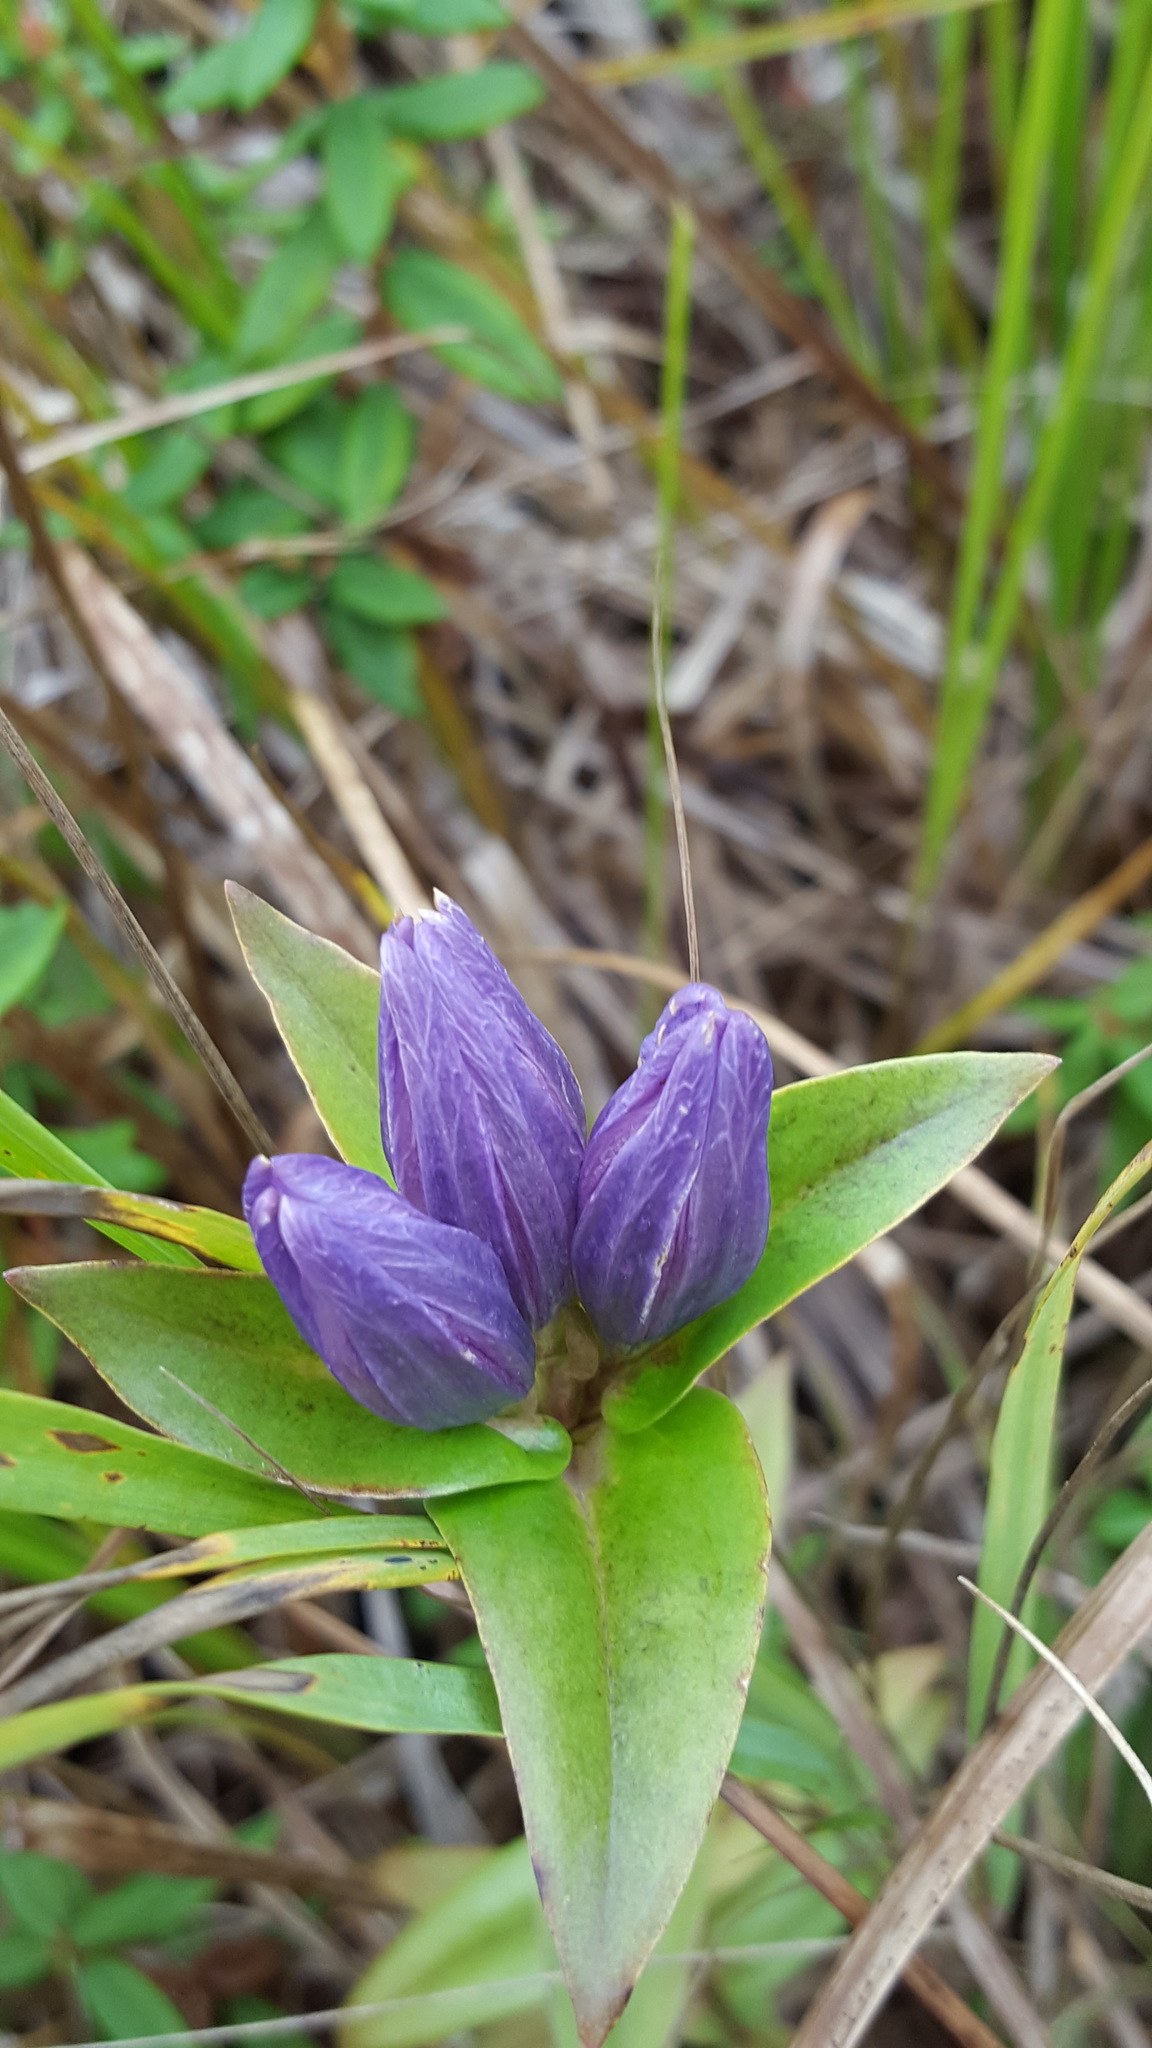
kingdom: Plantae
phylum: Tracheophyta
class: Magnoliopsida
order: Gentianales
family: Gentianaceae
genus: Gentiana
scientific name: Gentiana rubricaulis
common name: Purple-stemmed gentian
